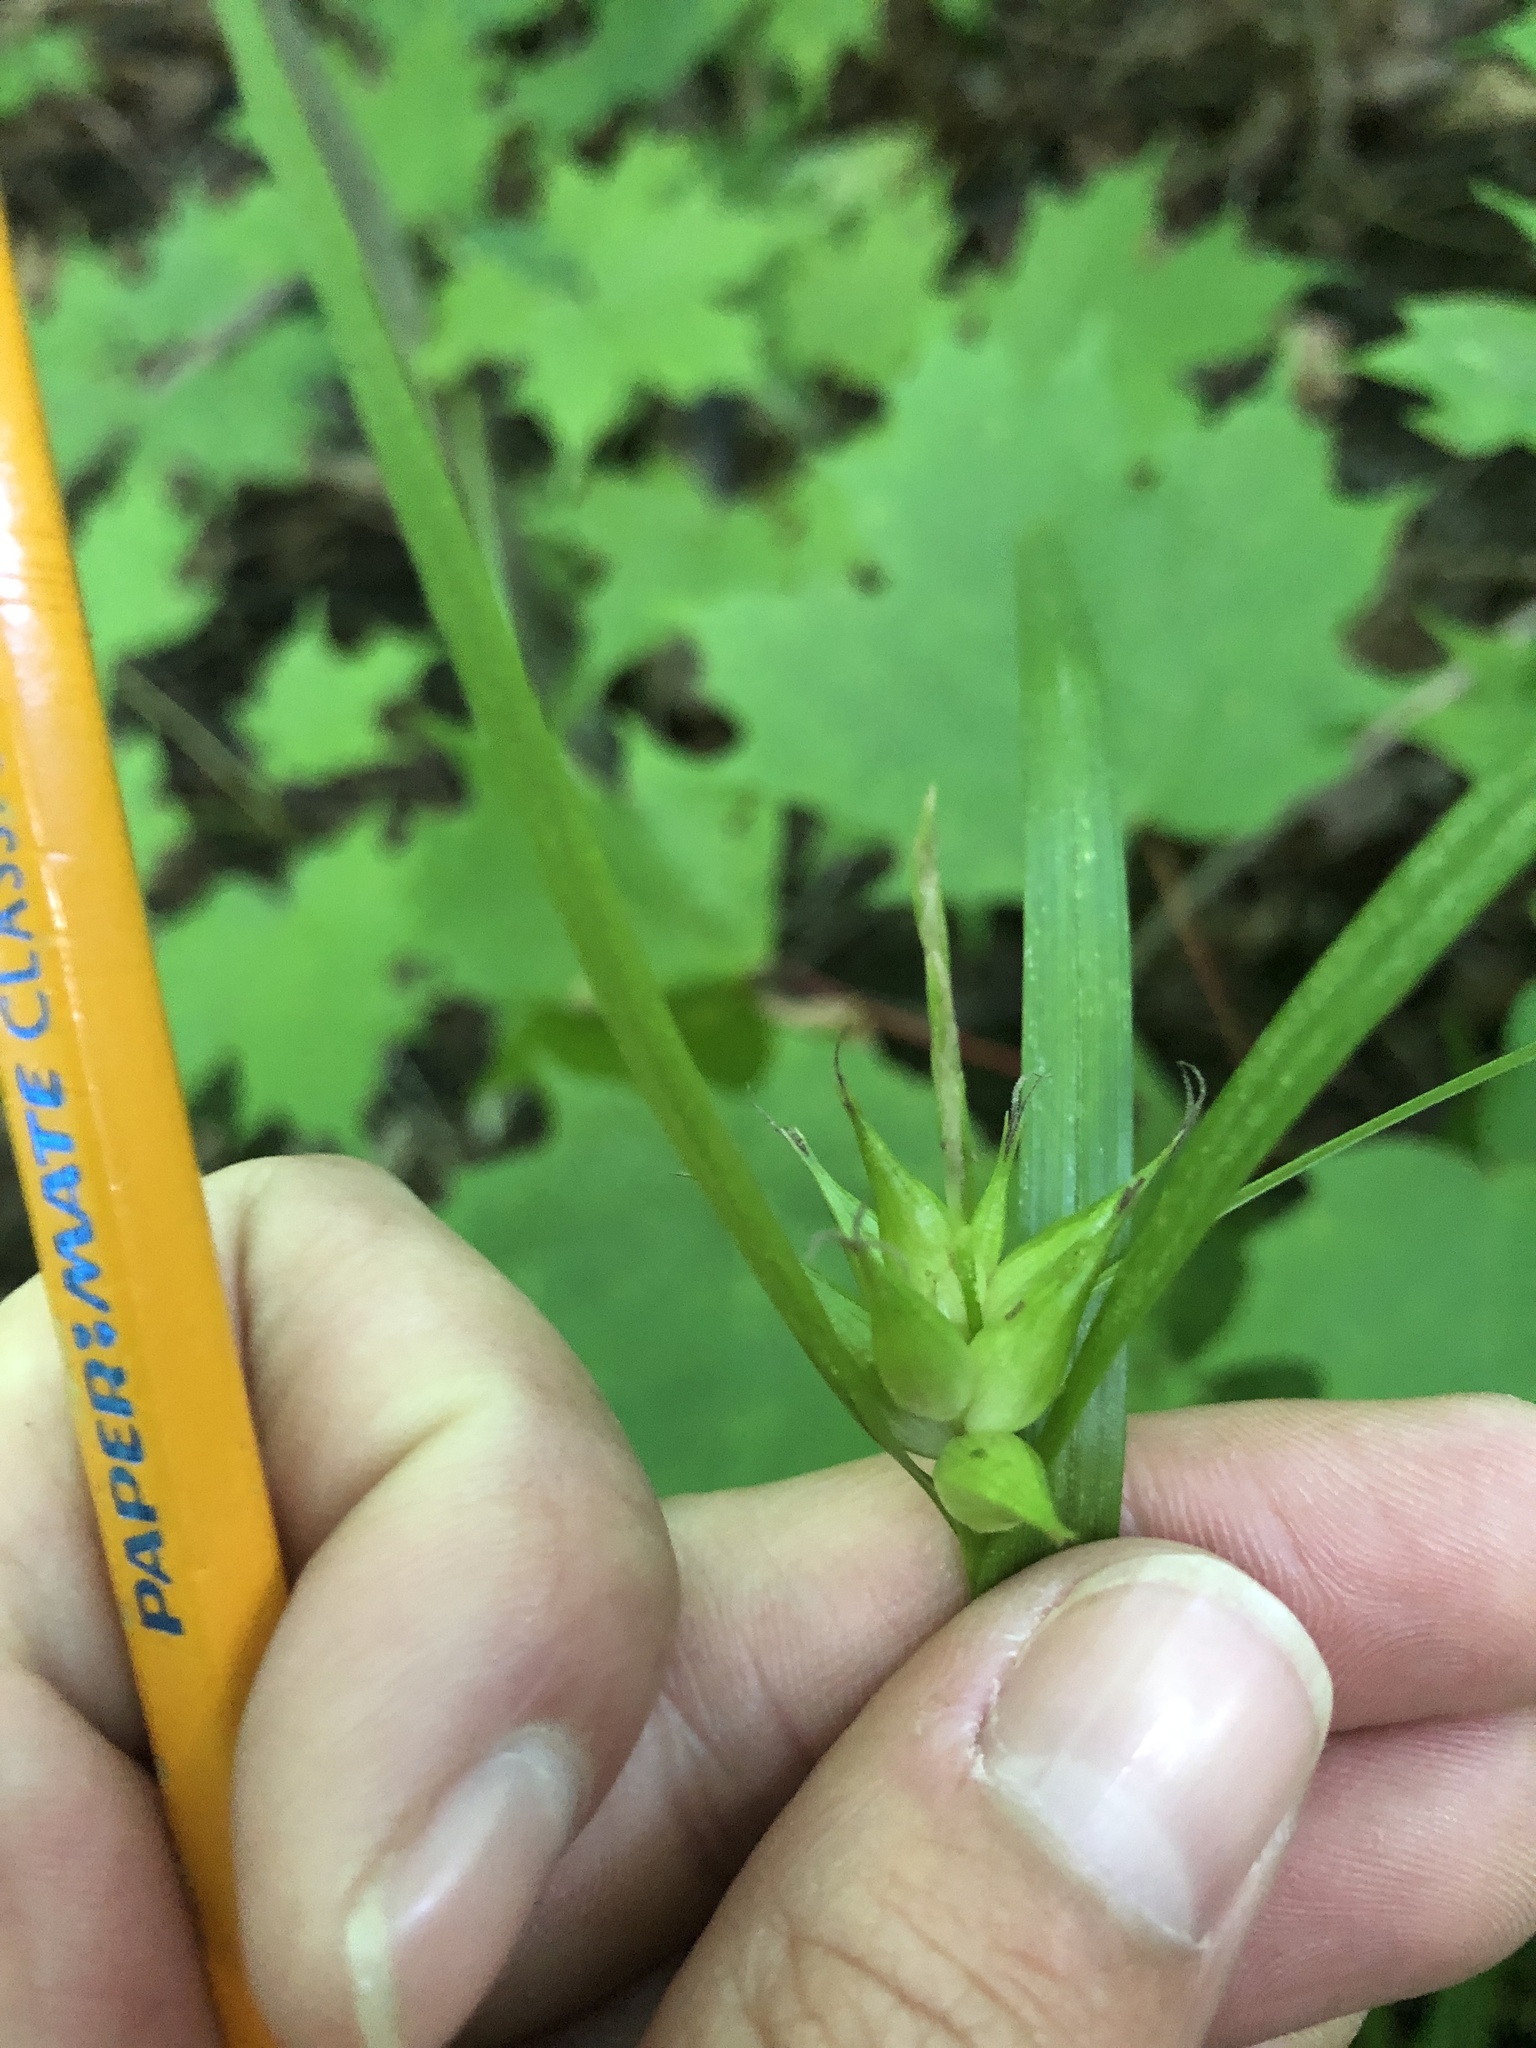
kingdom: Plantae
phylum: Tracheophyta
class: Liliopsida
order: Poales
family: Cyperaceae
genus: Carex
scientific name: Carex intumescens
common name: Greater bladder sedge
